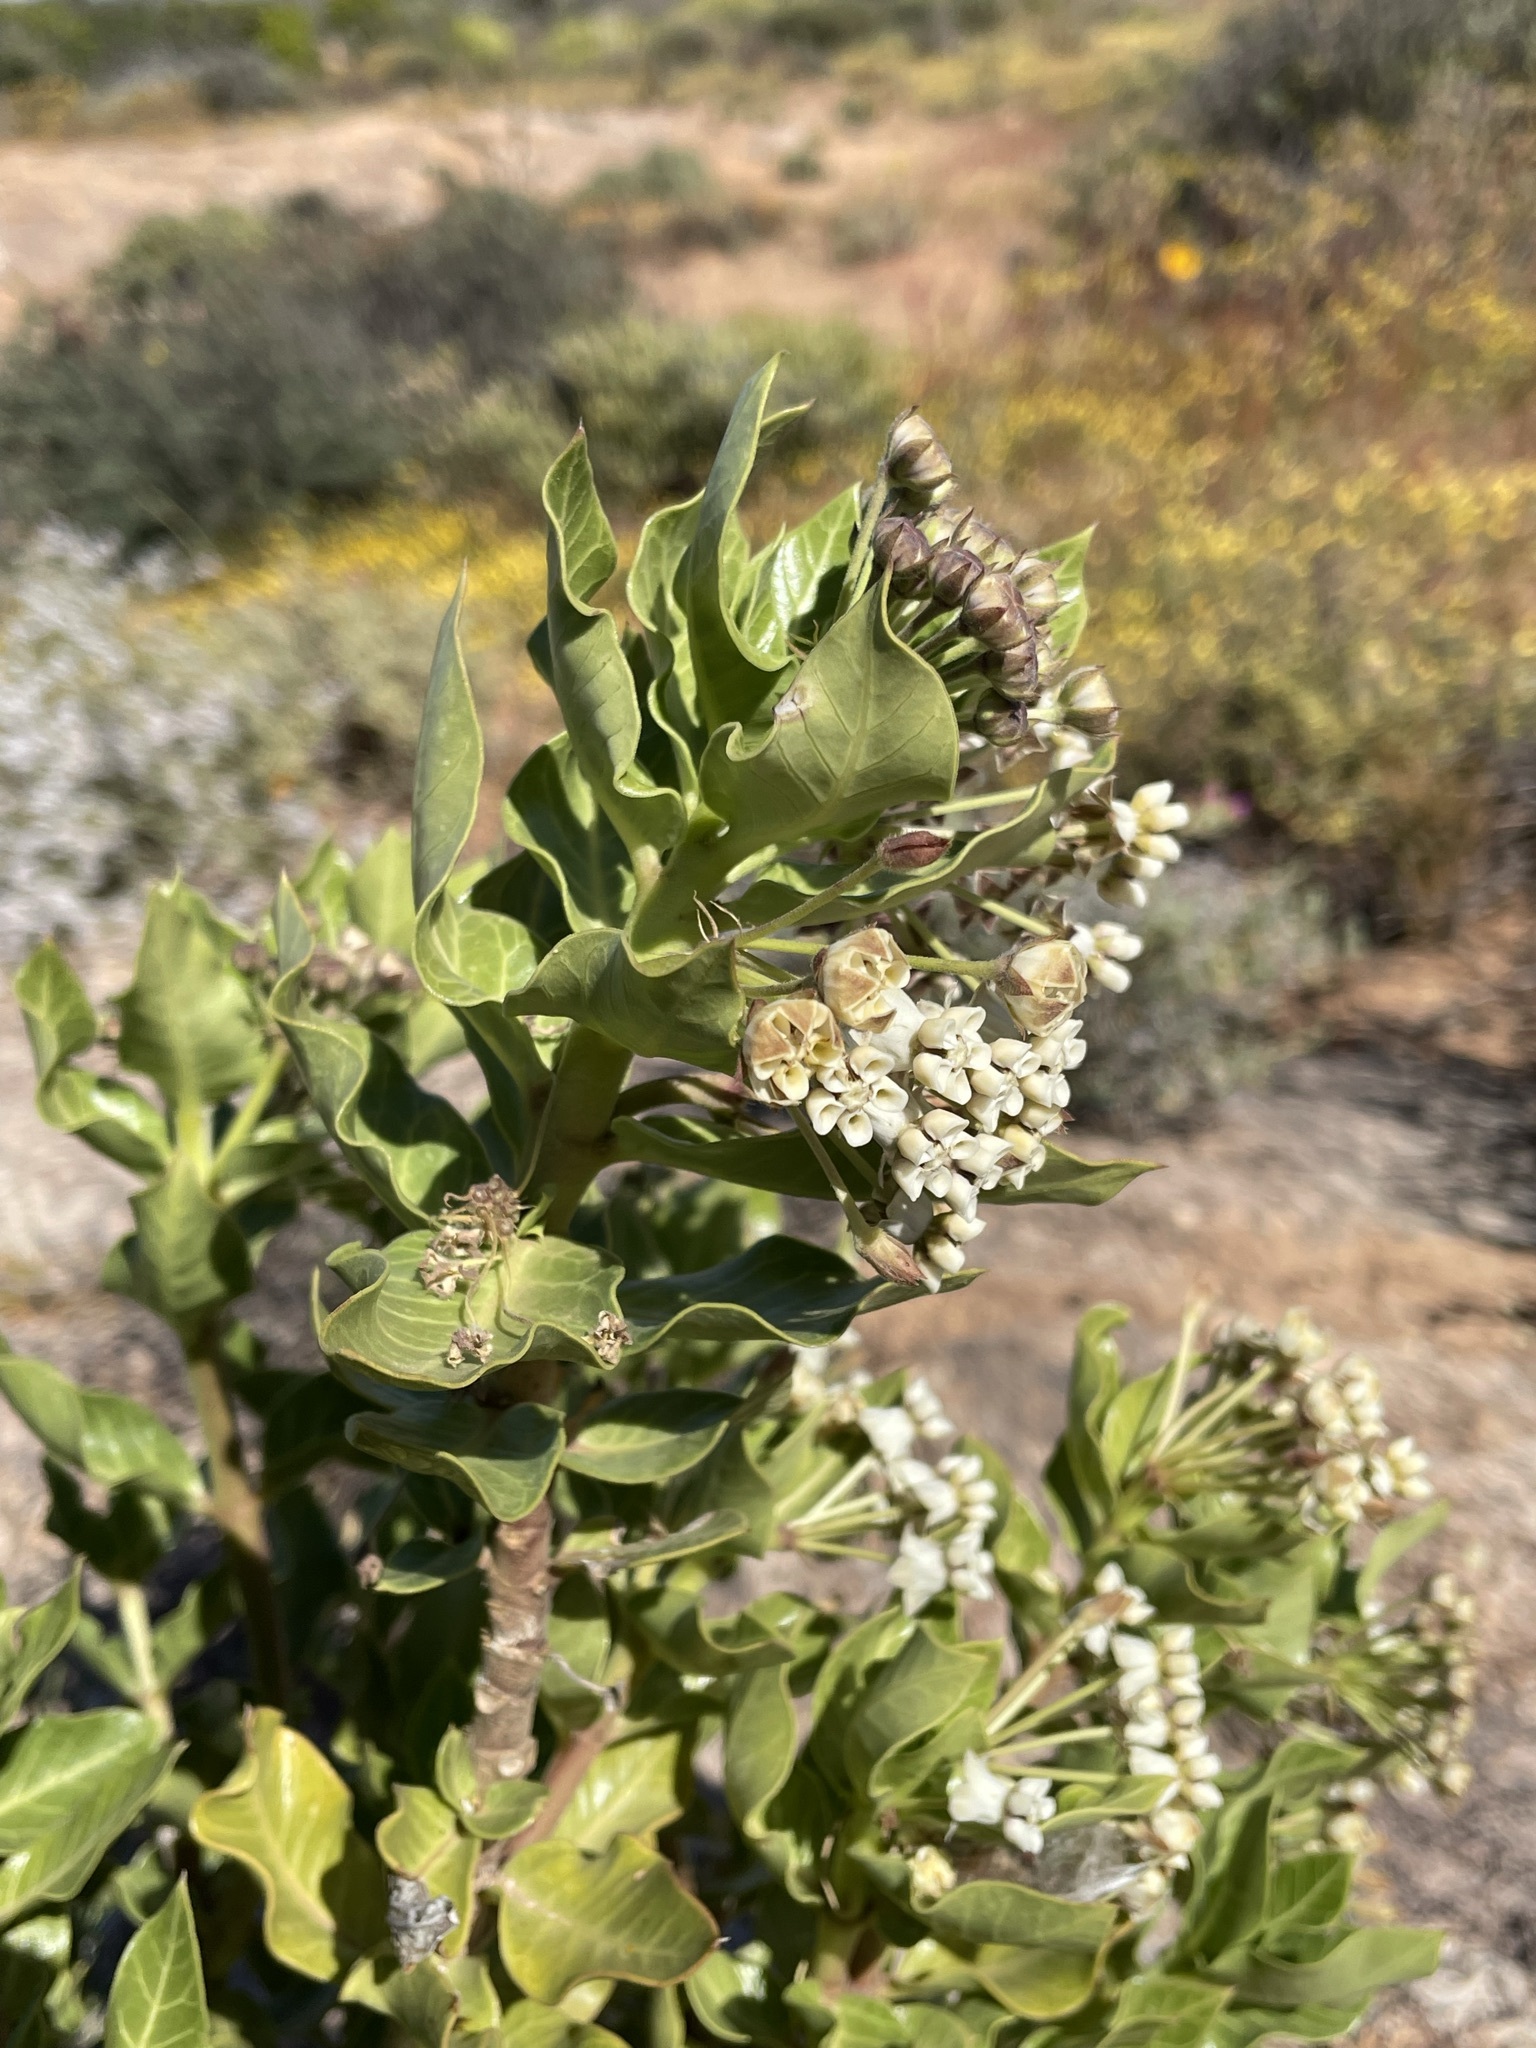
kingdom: Plantae
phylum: Tracheophyta
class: Magnoliopsida
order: Gentianales
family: Apocynaceae
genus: Gomphocarpus
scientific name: Gomphocarpus cancellatus
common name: Wild cotton
